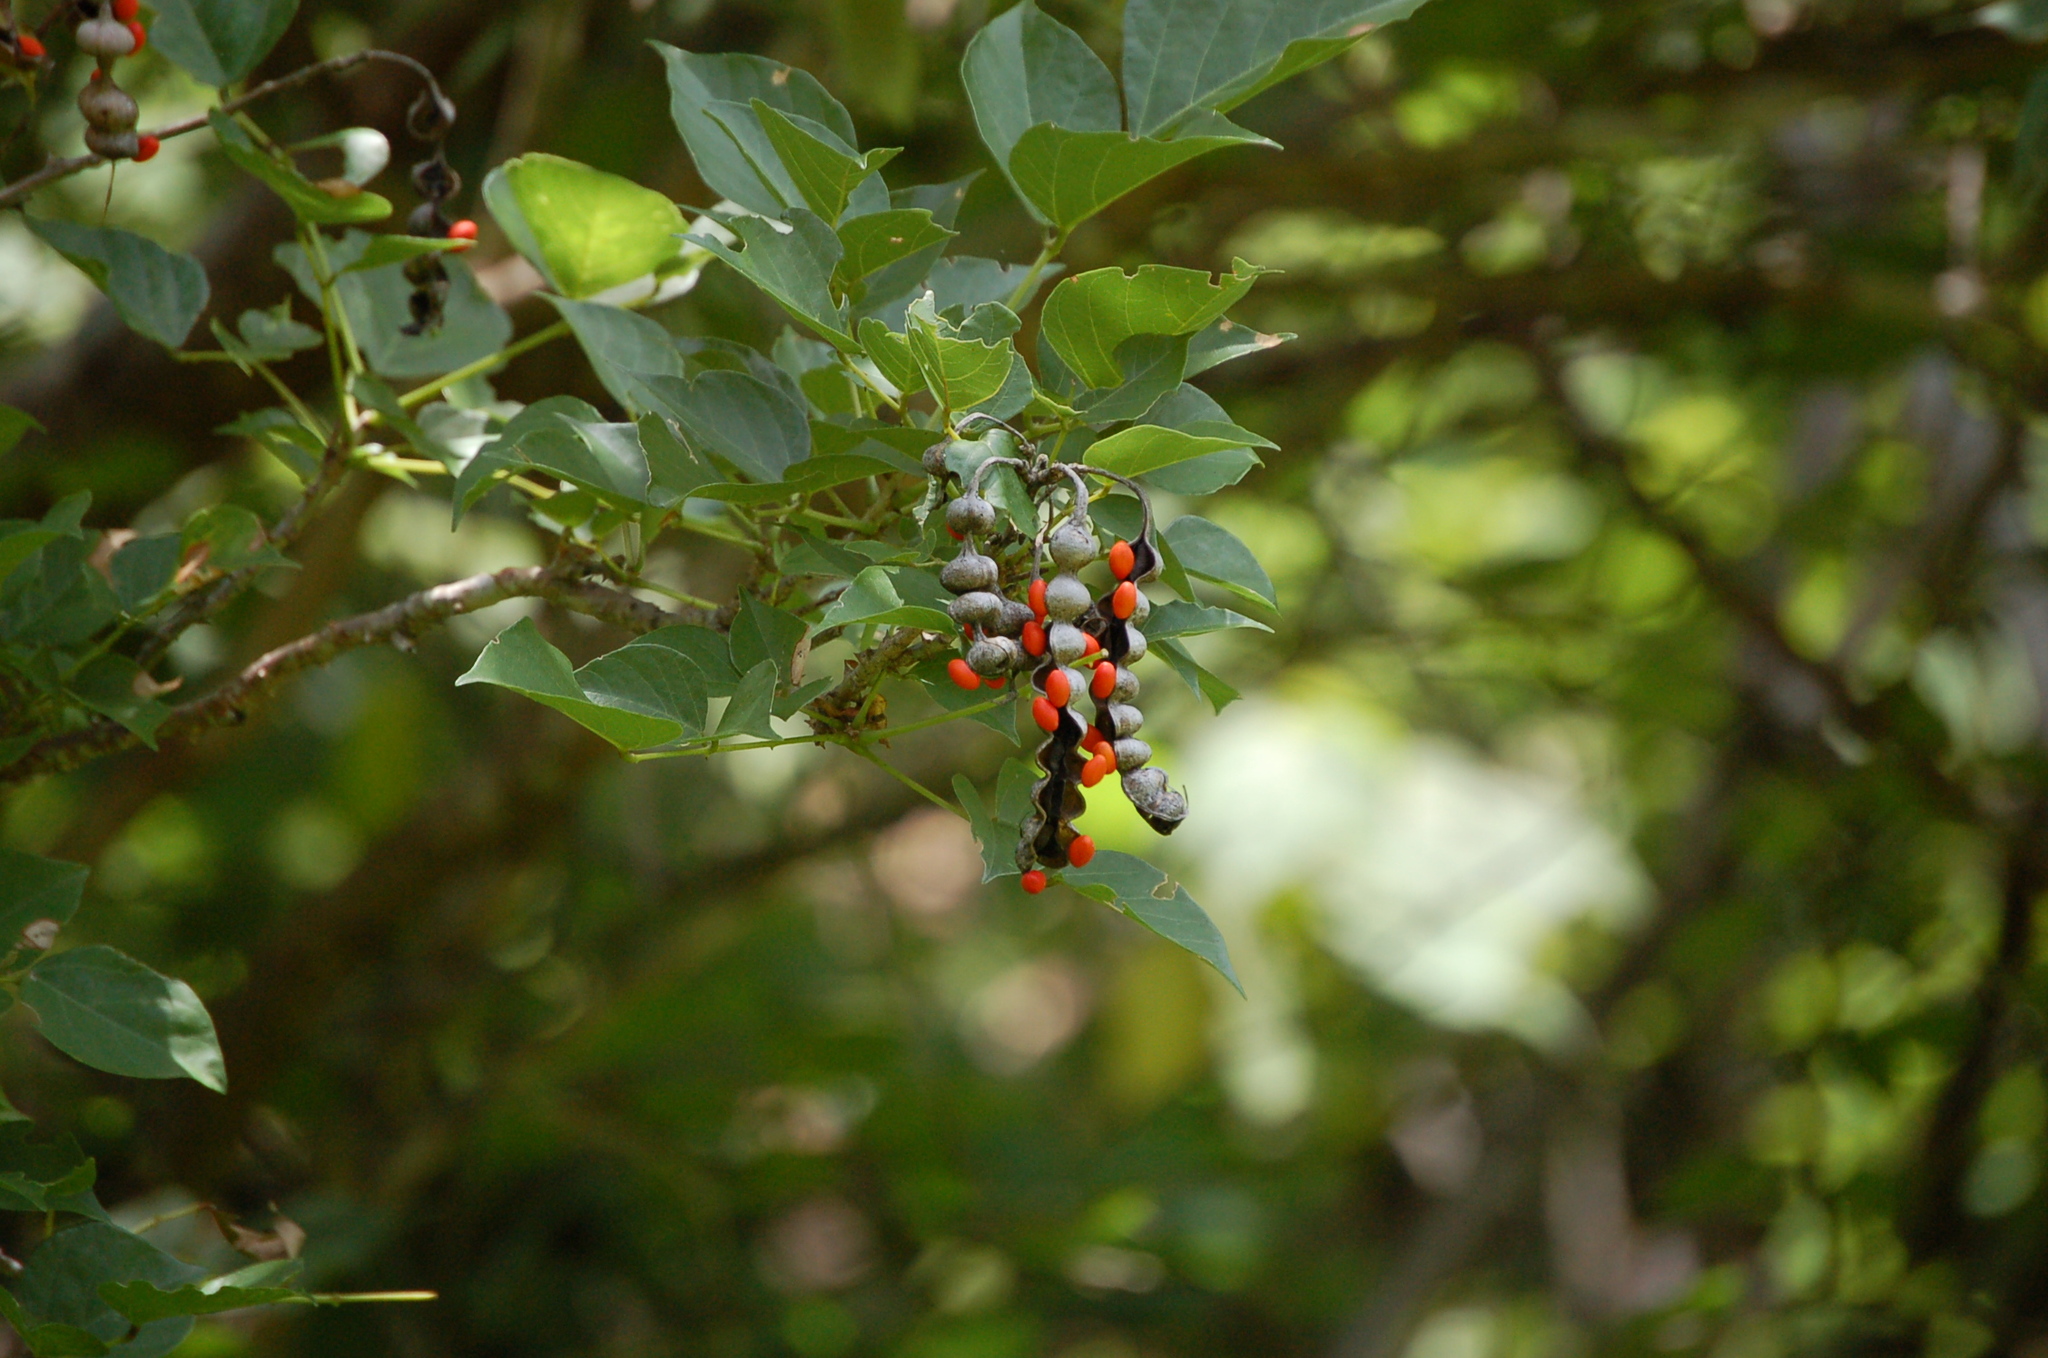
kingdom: Plantae
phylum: Tracheophyta
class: Magnoliopsida
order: Fabales
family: Fabaceae
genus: Erythrina
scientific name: Erythrina berteroana
